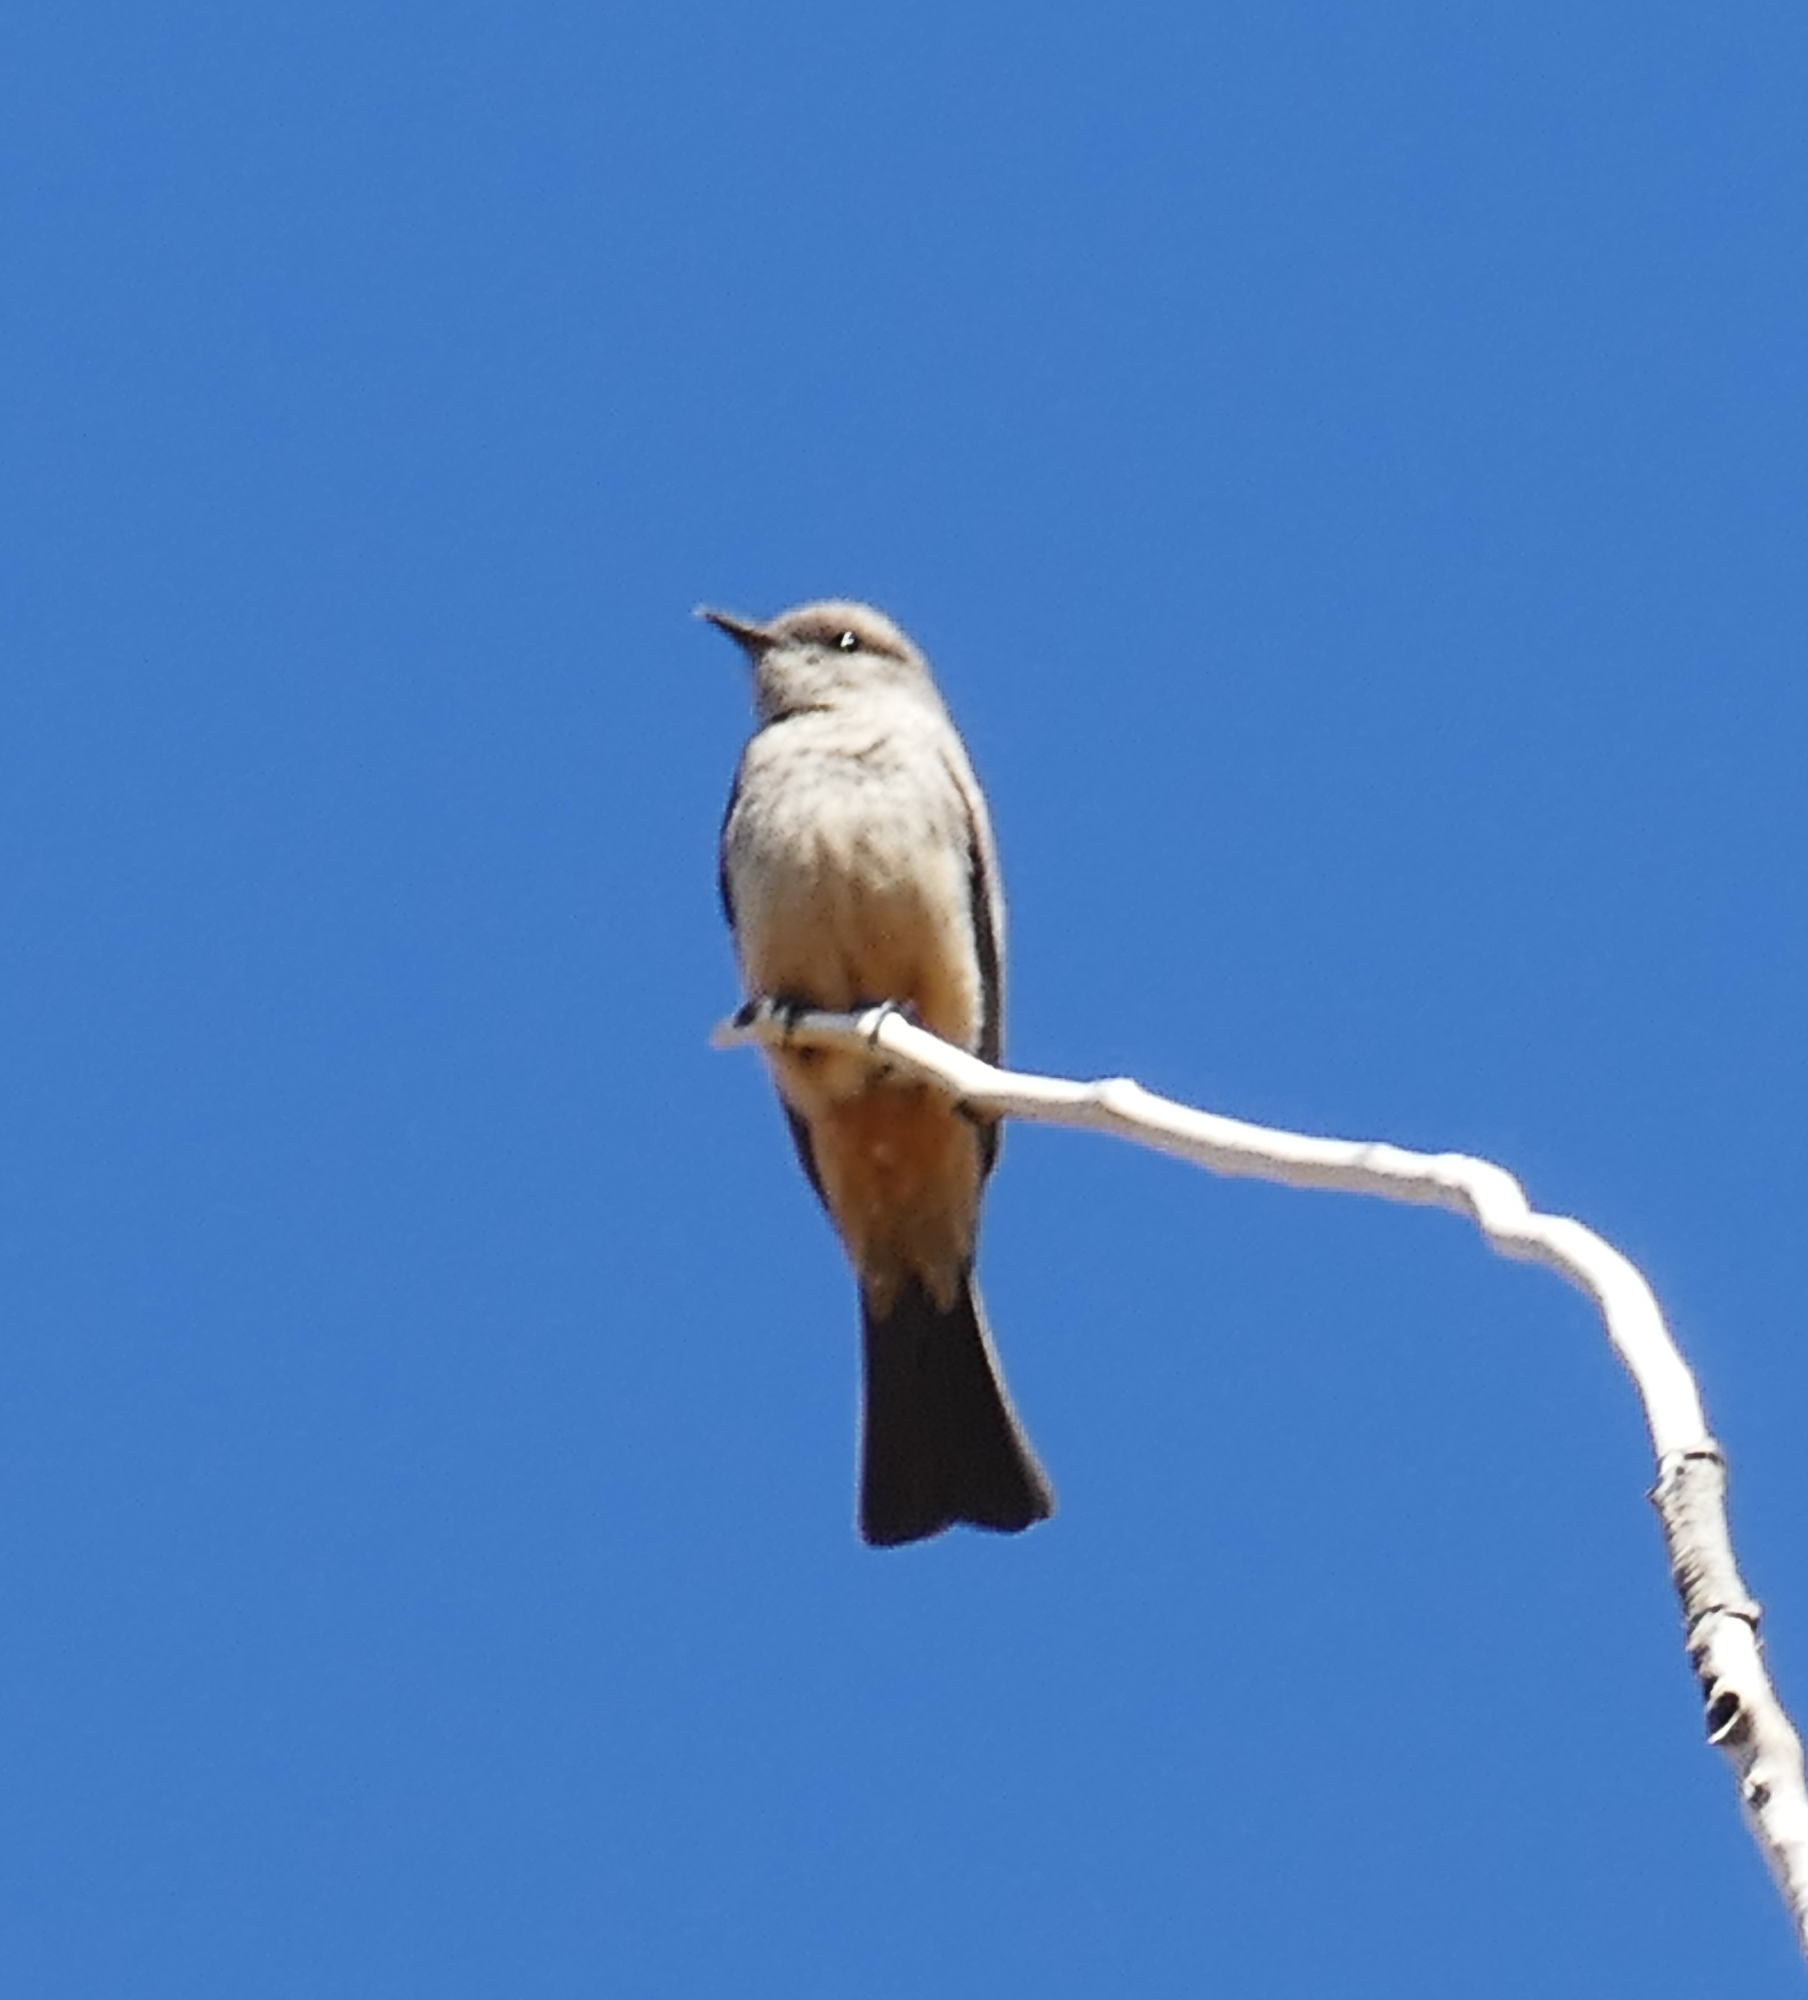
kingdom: Animalia
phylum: Chordata
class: Aves
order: Passeriformes
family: Tyrannidae
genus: Sayornis
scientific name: Sayornis saya
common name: Say's phoebe
